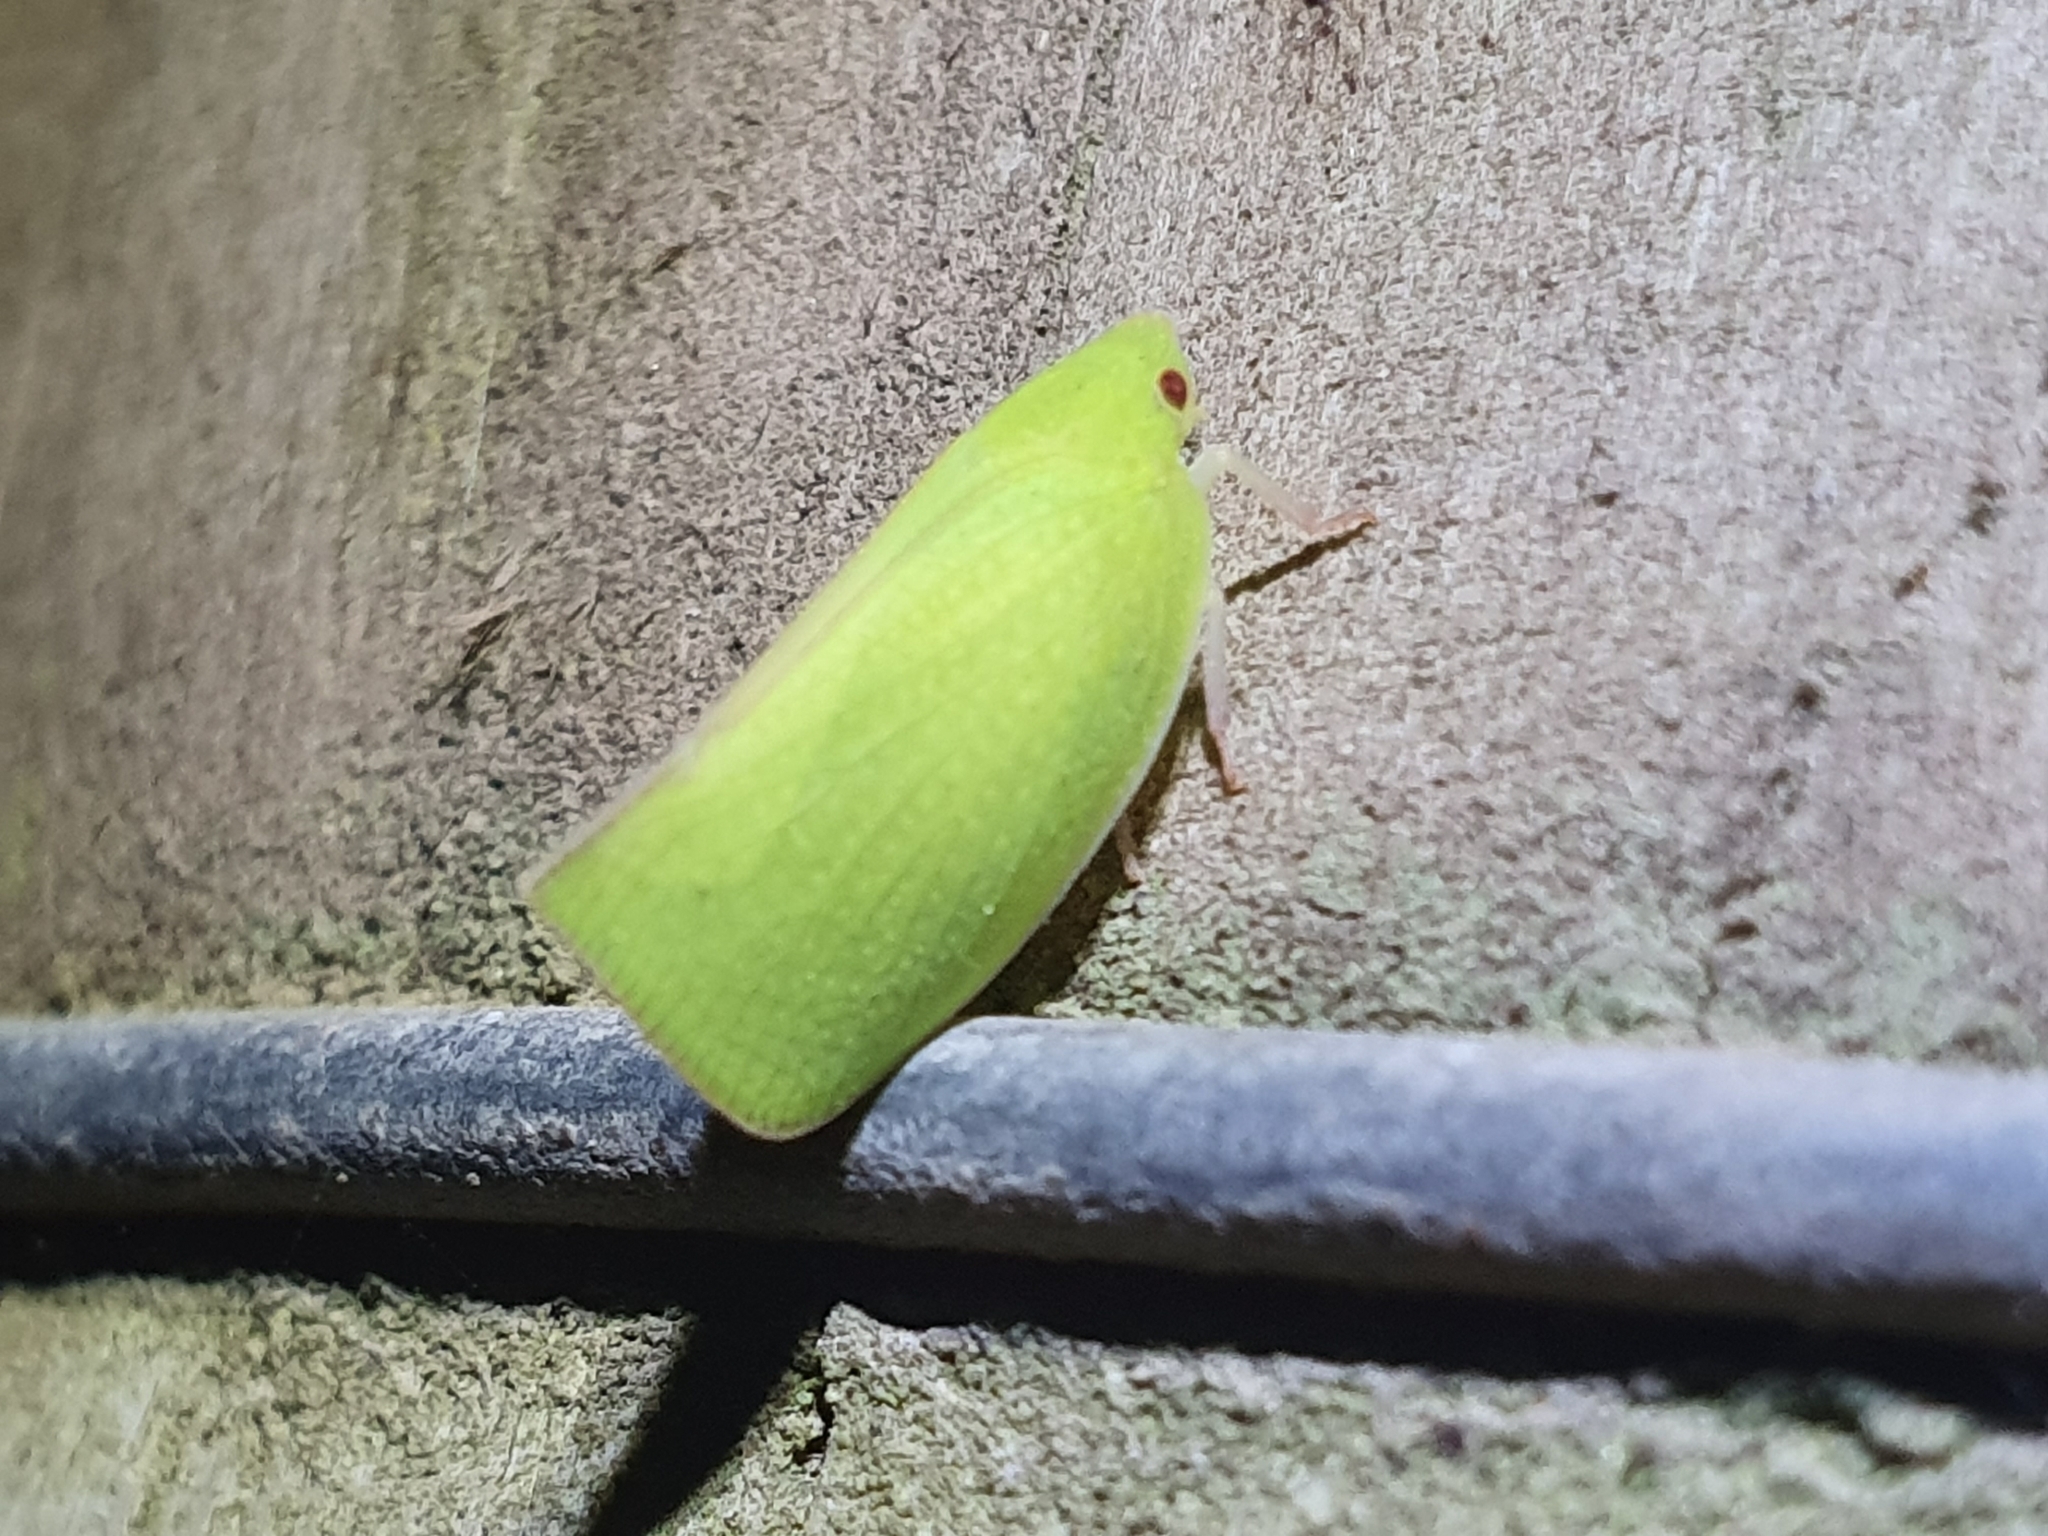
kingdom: Animalia
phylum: Arthropoda
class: Insecta
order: Hemiptera
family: Flatidae
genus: Siphanta
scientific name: Siphanta acuta
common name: Torpedo bug
